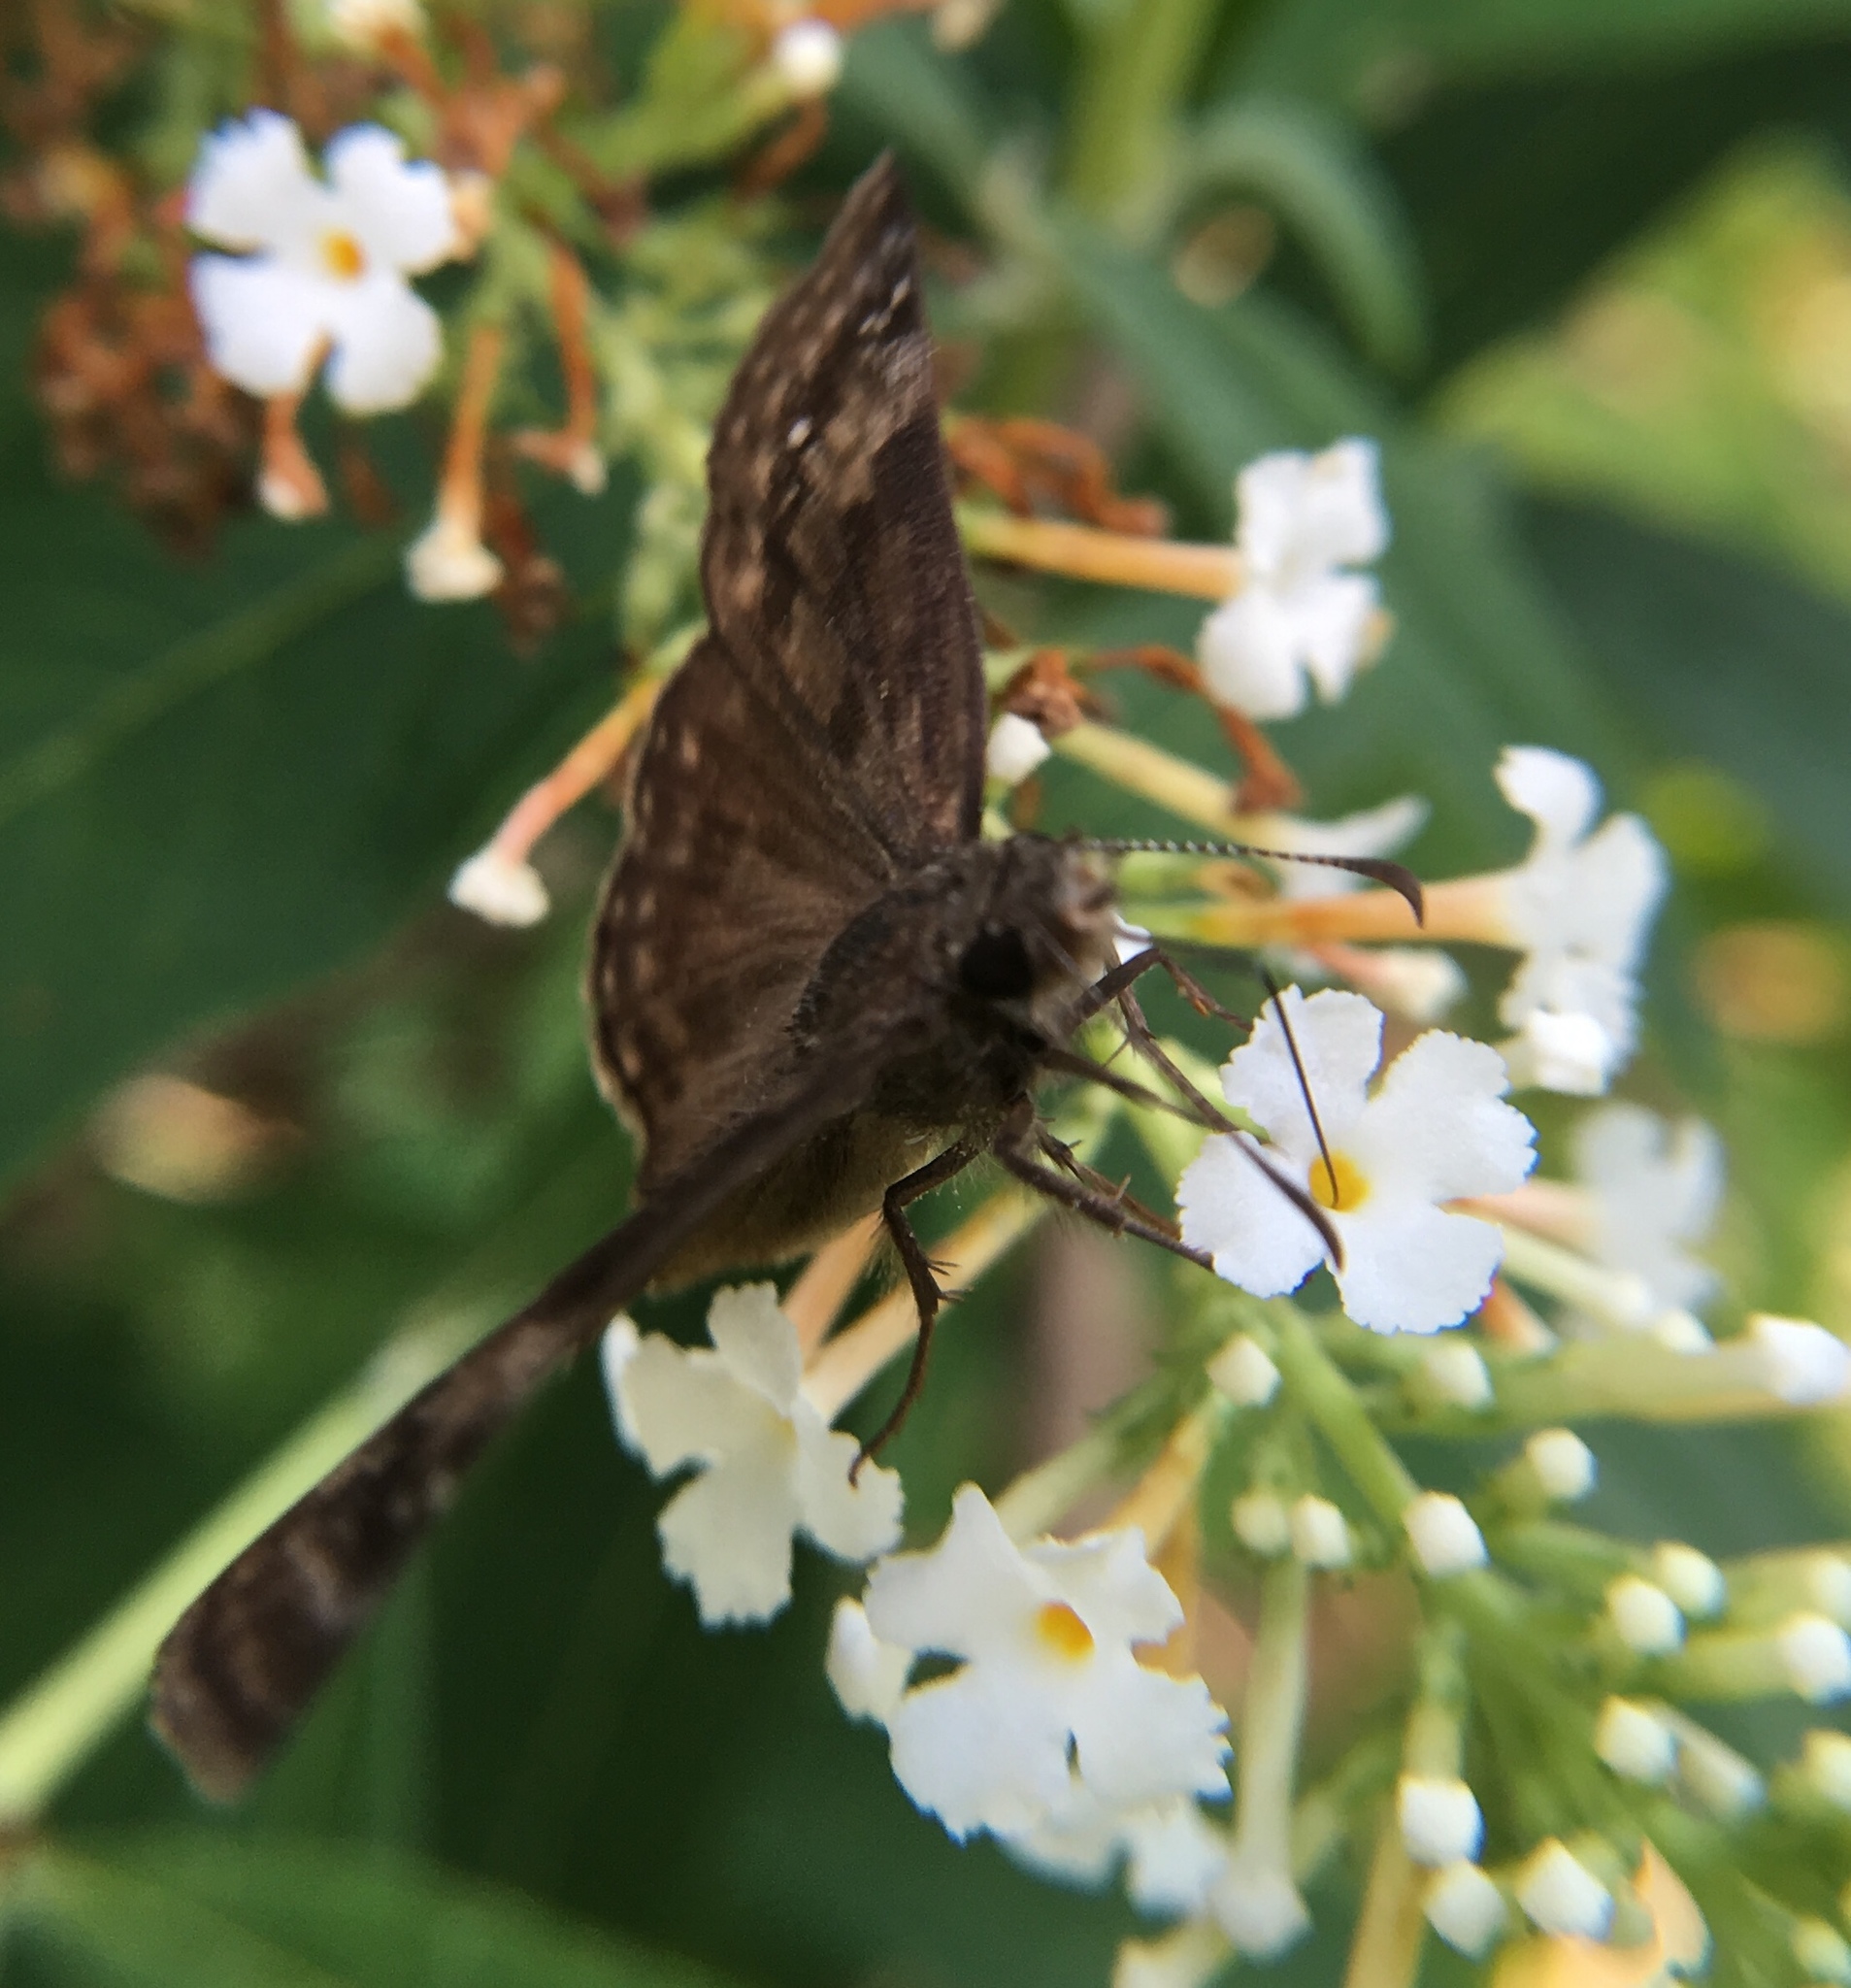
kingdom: Animalia
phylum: Arthropoda
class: Insecta
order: Lepidoptera
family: Hesperiidae
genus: Erynnis
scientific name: Erynnis baptisiae
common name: Wild indigo duskywing
